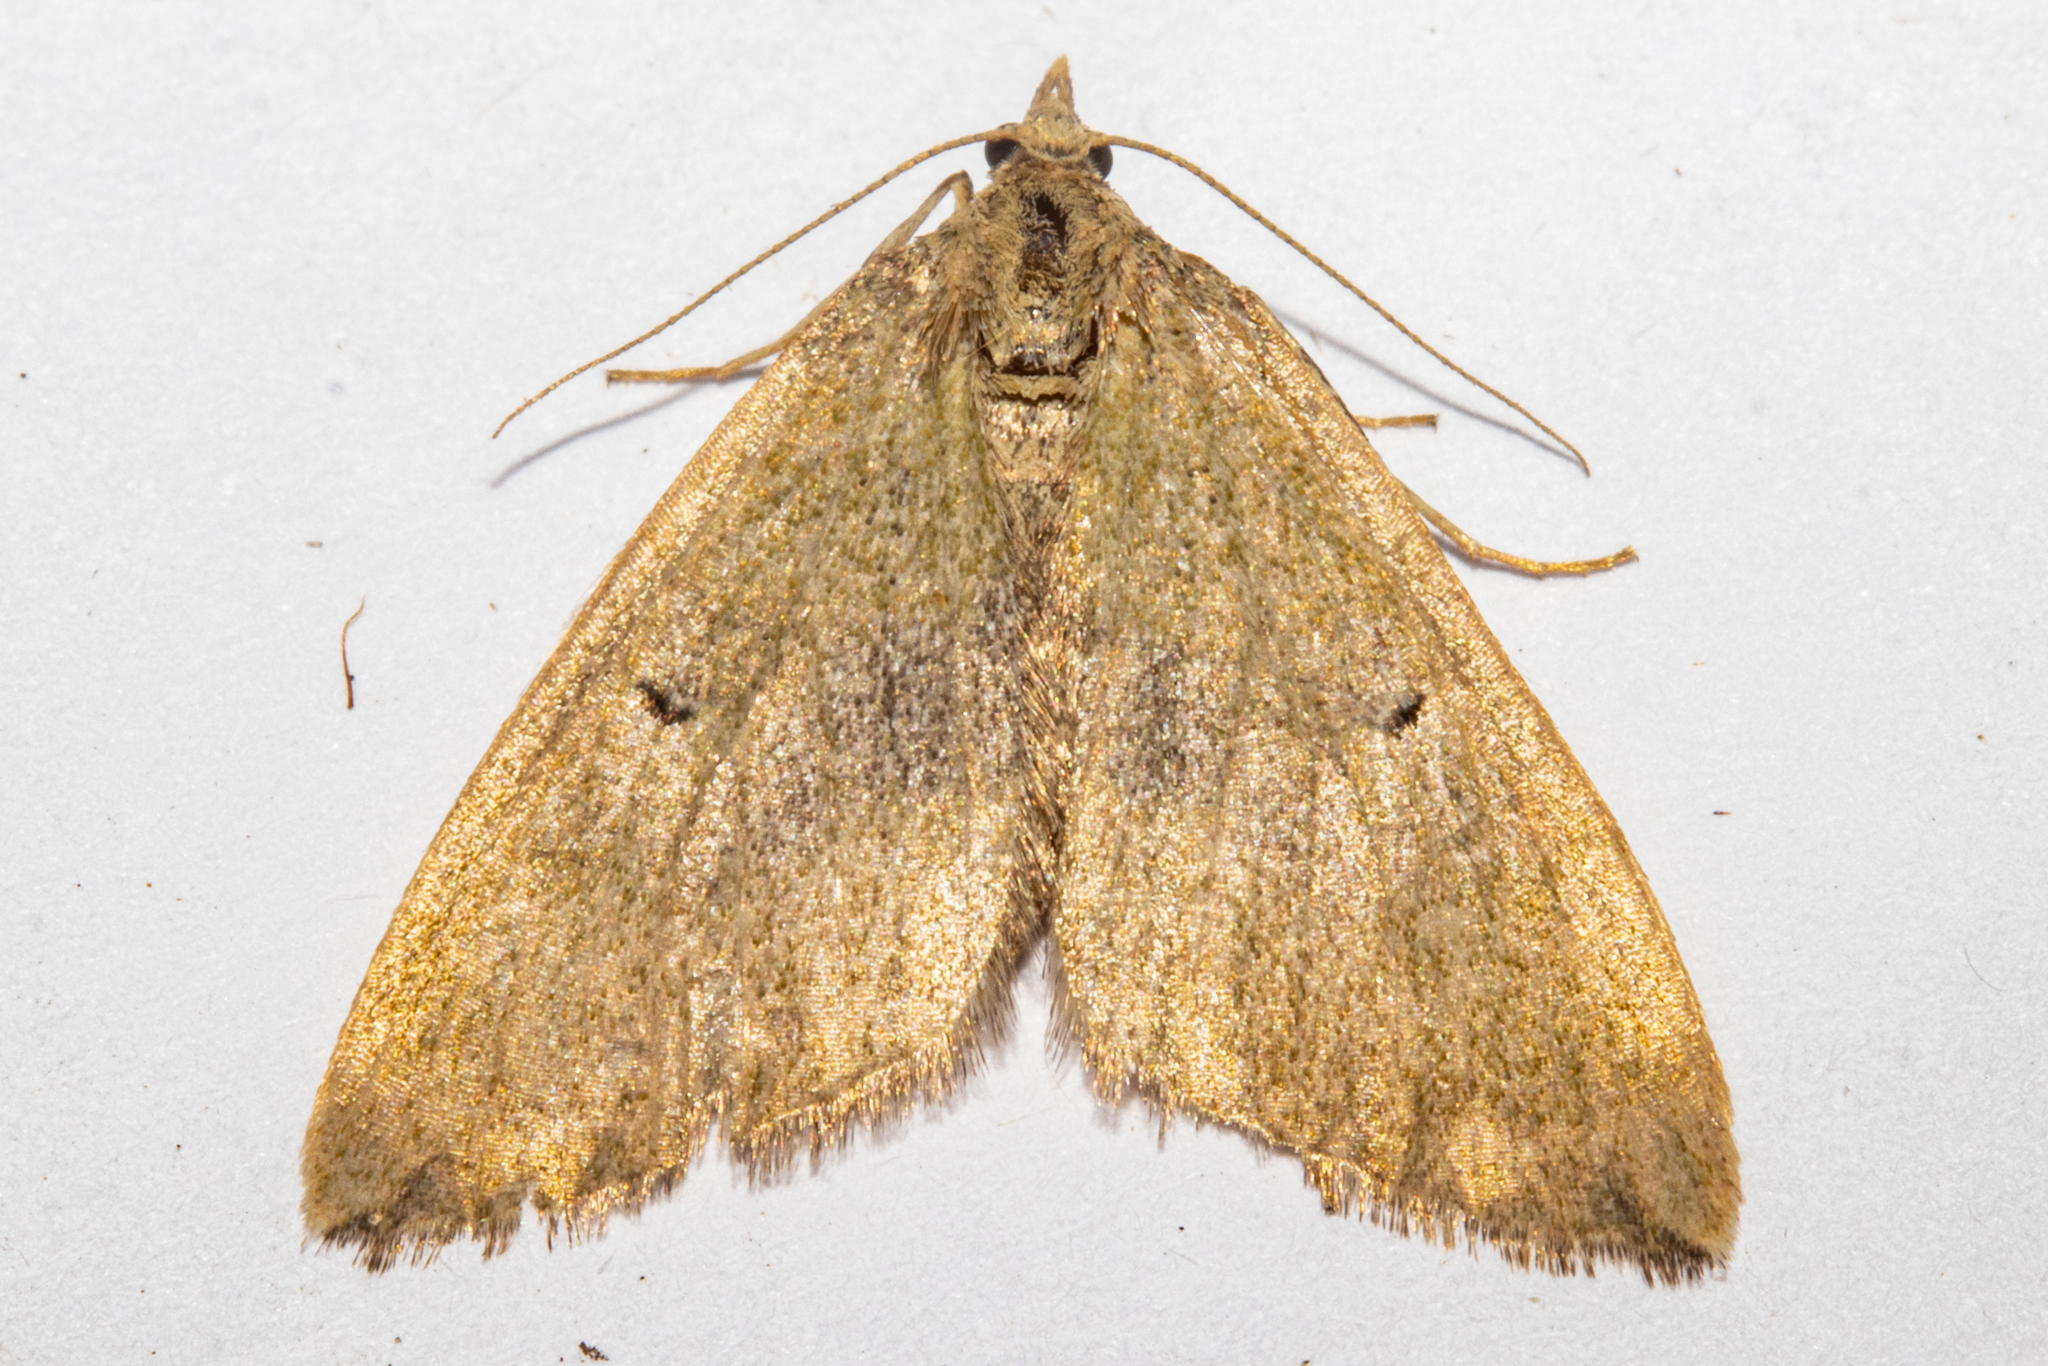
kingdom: Animalia
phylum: Arthropoda
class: Insecta
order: Lepidoptera
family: Geometridae
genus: Epyaxa
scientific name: Epyaxa rosearia
